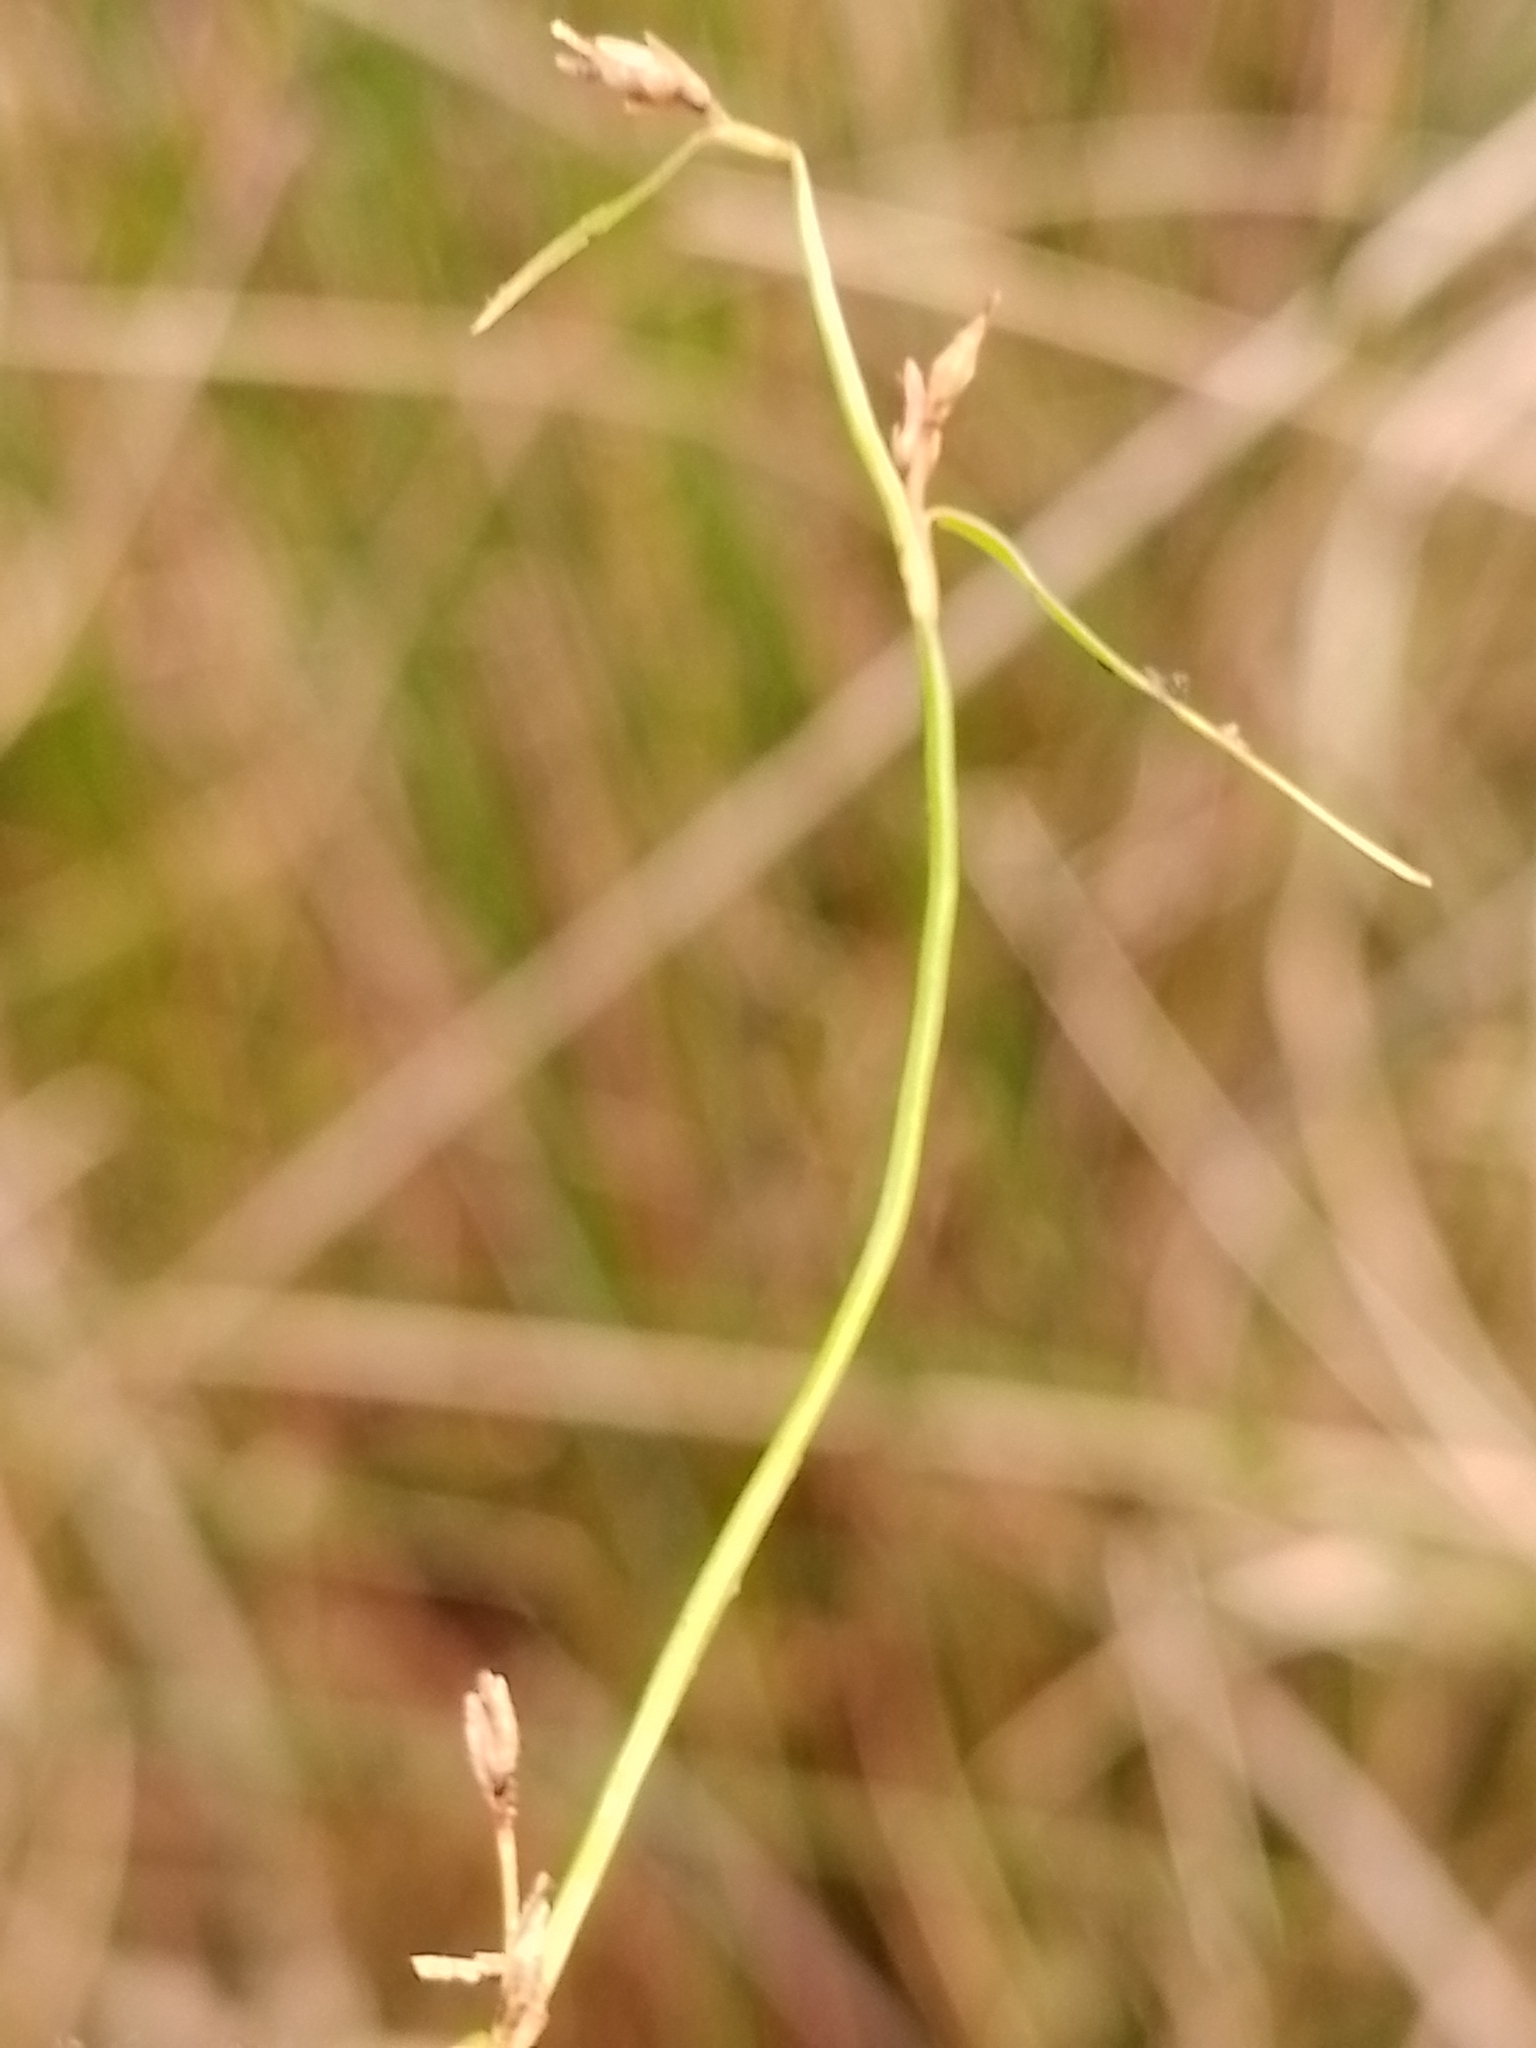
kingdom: Plantae
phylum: Tracheophyta
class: Liliopsida
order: Poales
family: Cyperaceae
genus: Schoenus
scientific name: Schoenus maschalinus
